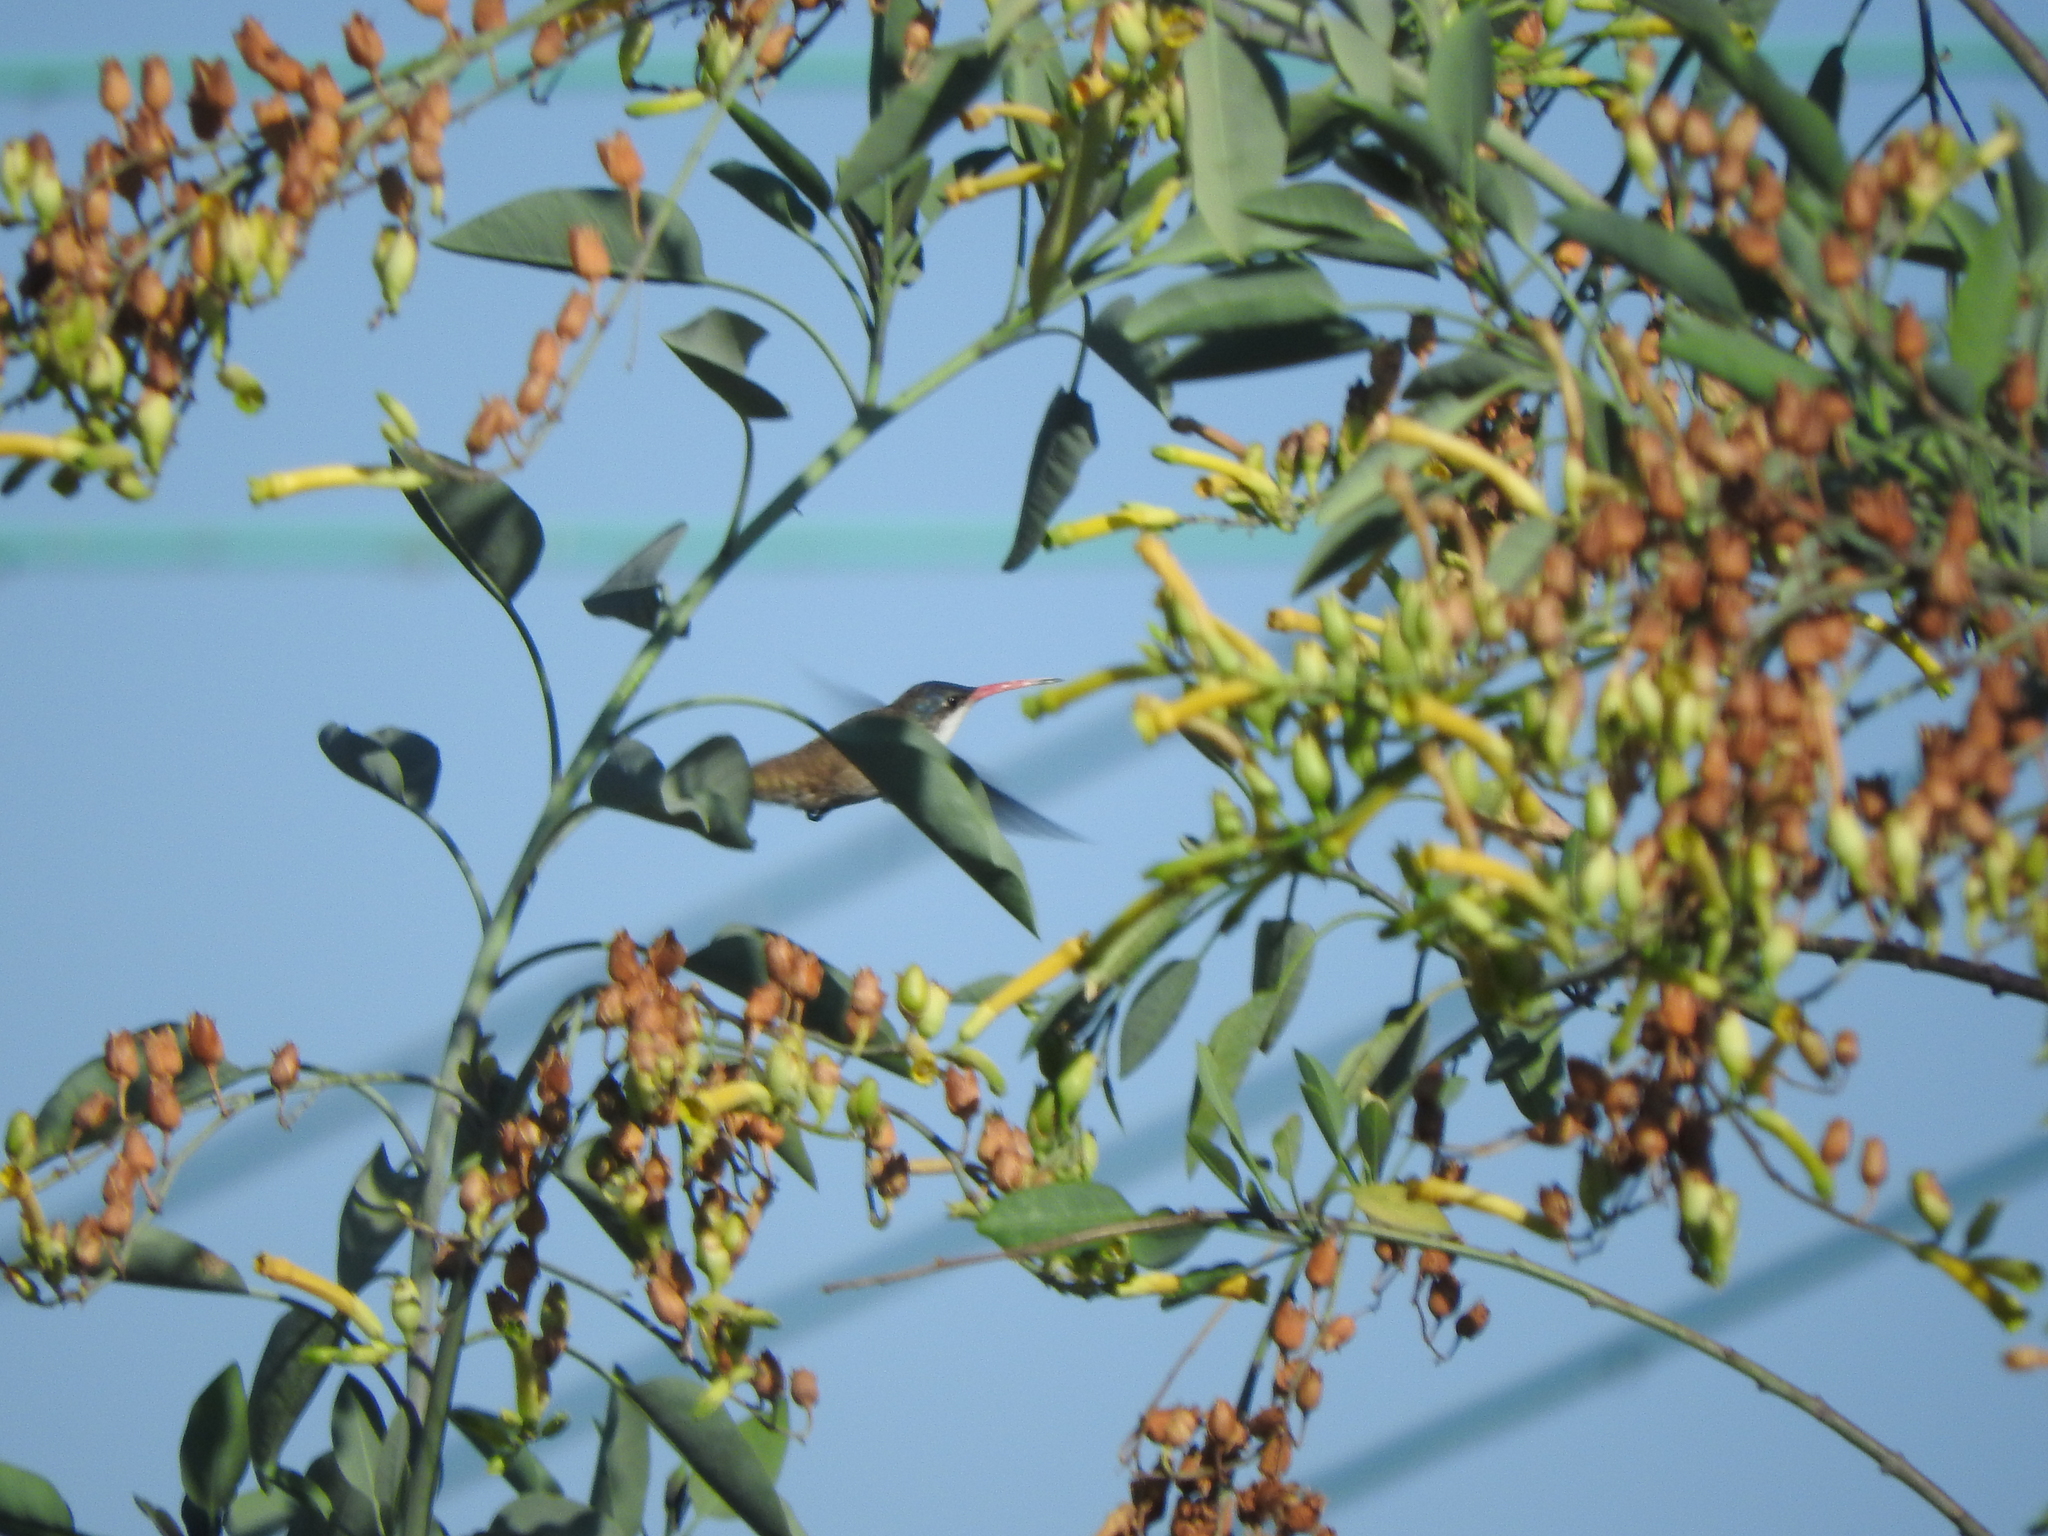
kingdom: Animalia
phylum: Chordata
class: Aves
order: Apodiformes
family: Trochilidae
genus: Leucolia
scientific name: Leucolia violiceps
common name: Violet-crowned hummingbird
